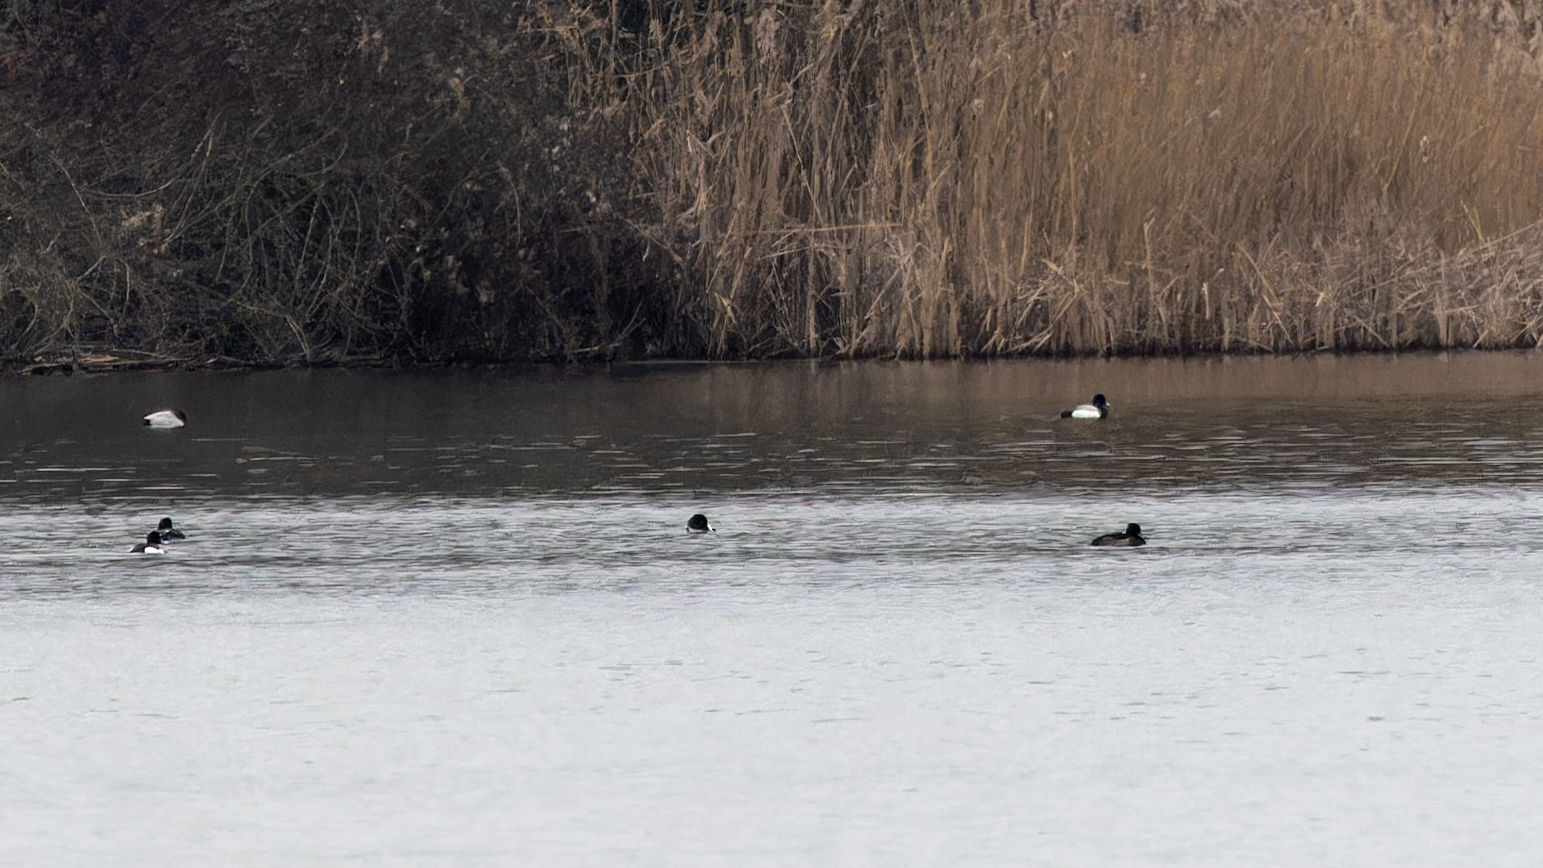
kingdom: Animalia
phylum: Chordata
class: Aves
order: Anseriformes
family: Anatidae
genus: Aythya
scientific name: Aythya marila
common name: Greater scaup
